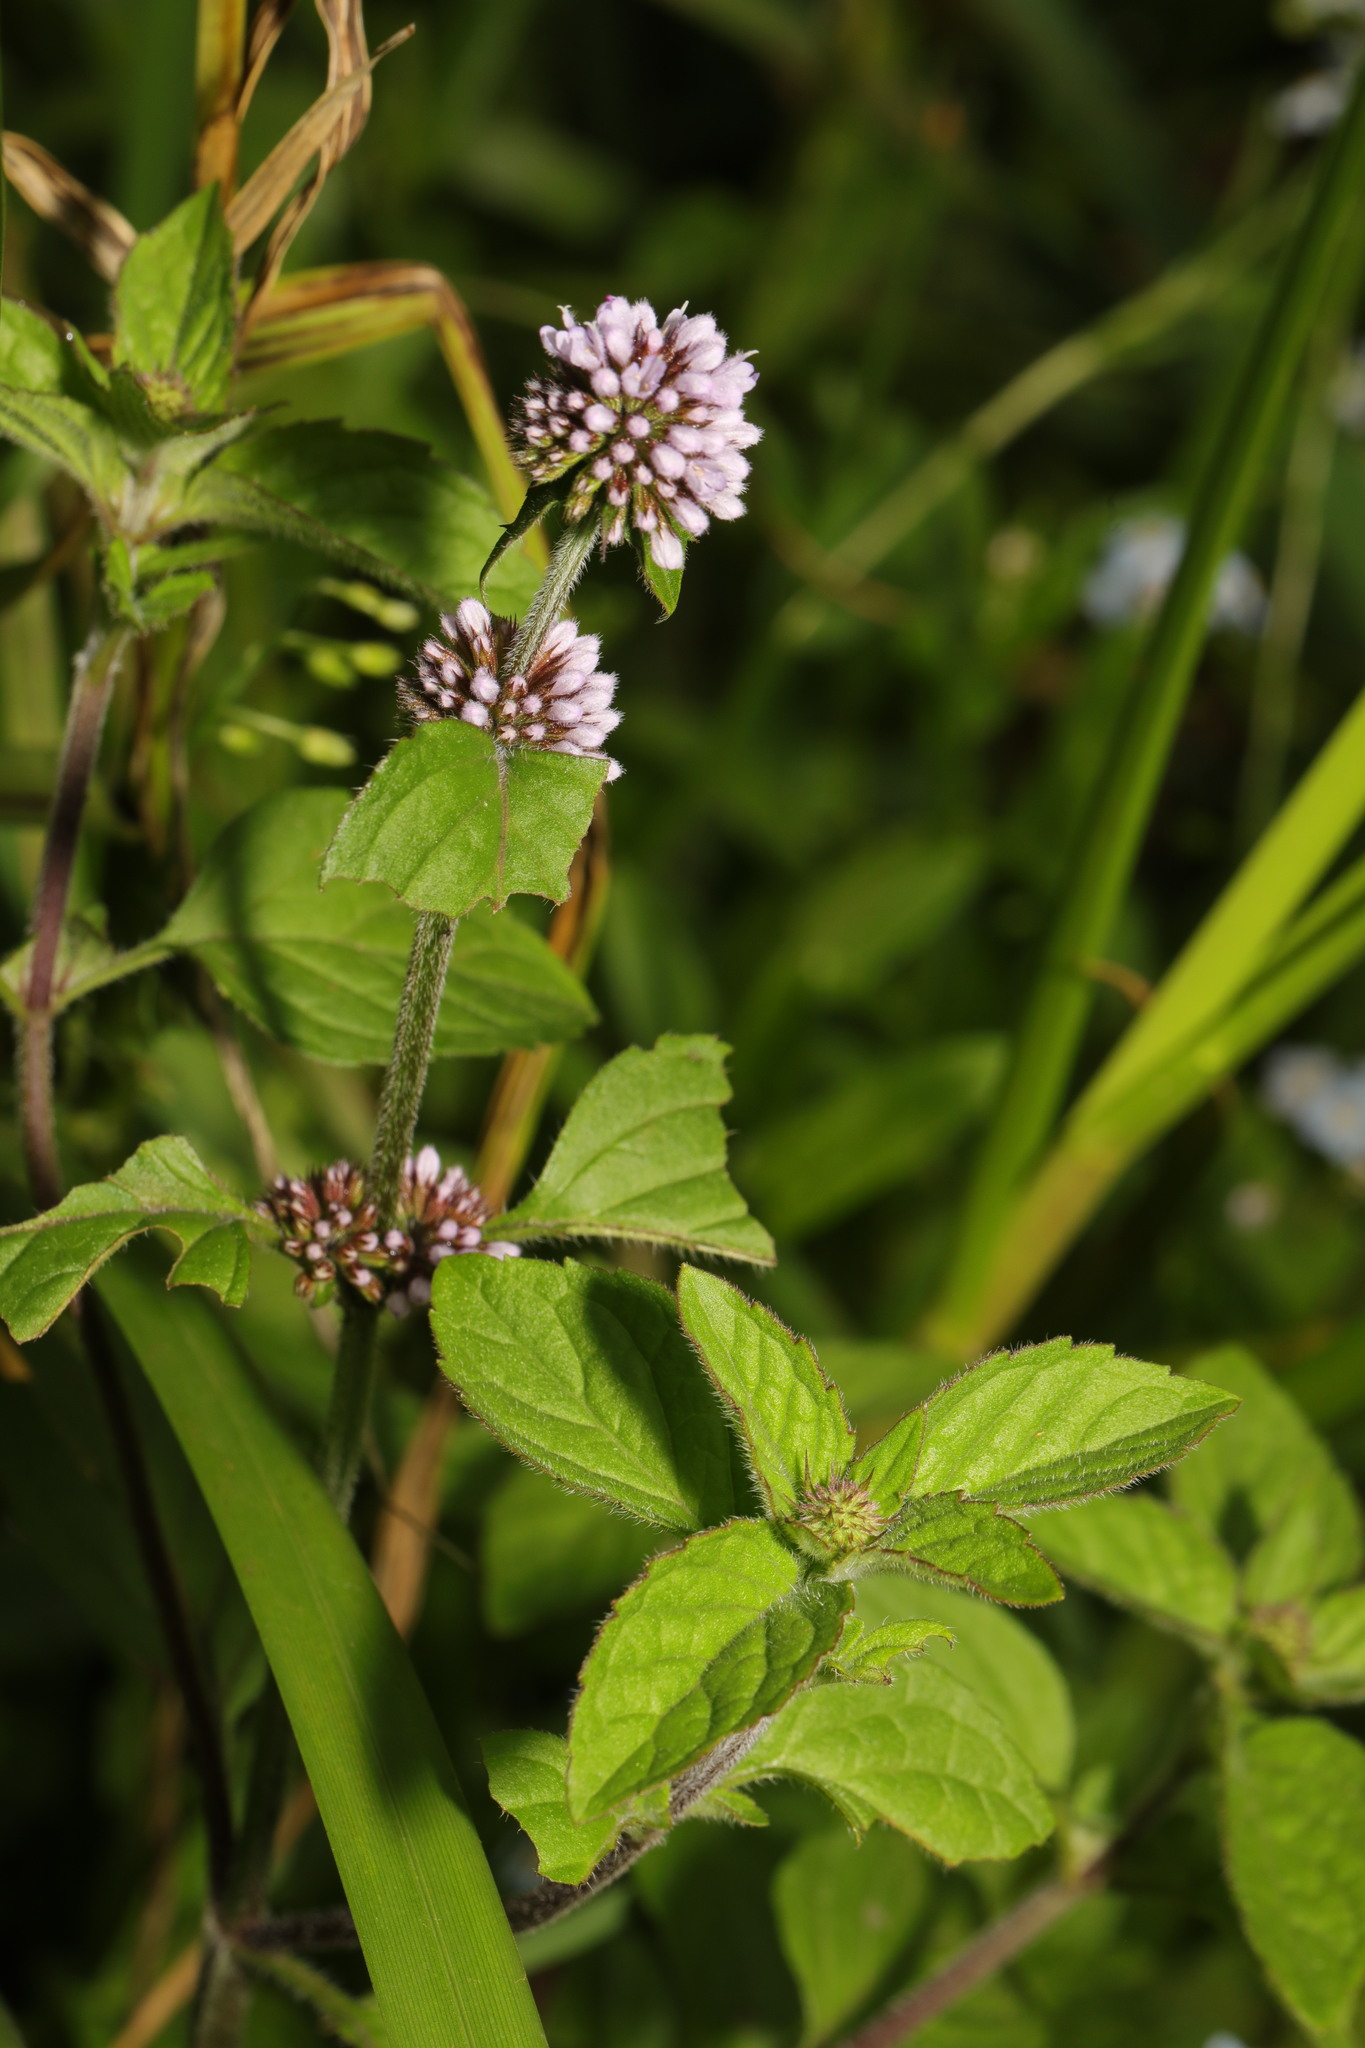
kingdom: Plantae
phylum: Tracheophyta
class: Magnoliopsida
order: Lamiales
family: Lamiaceae
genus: Mentha
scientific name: Mentha aquatica
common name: Water mint
